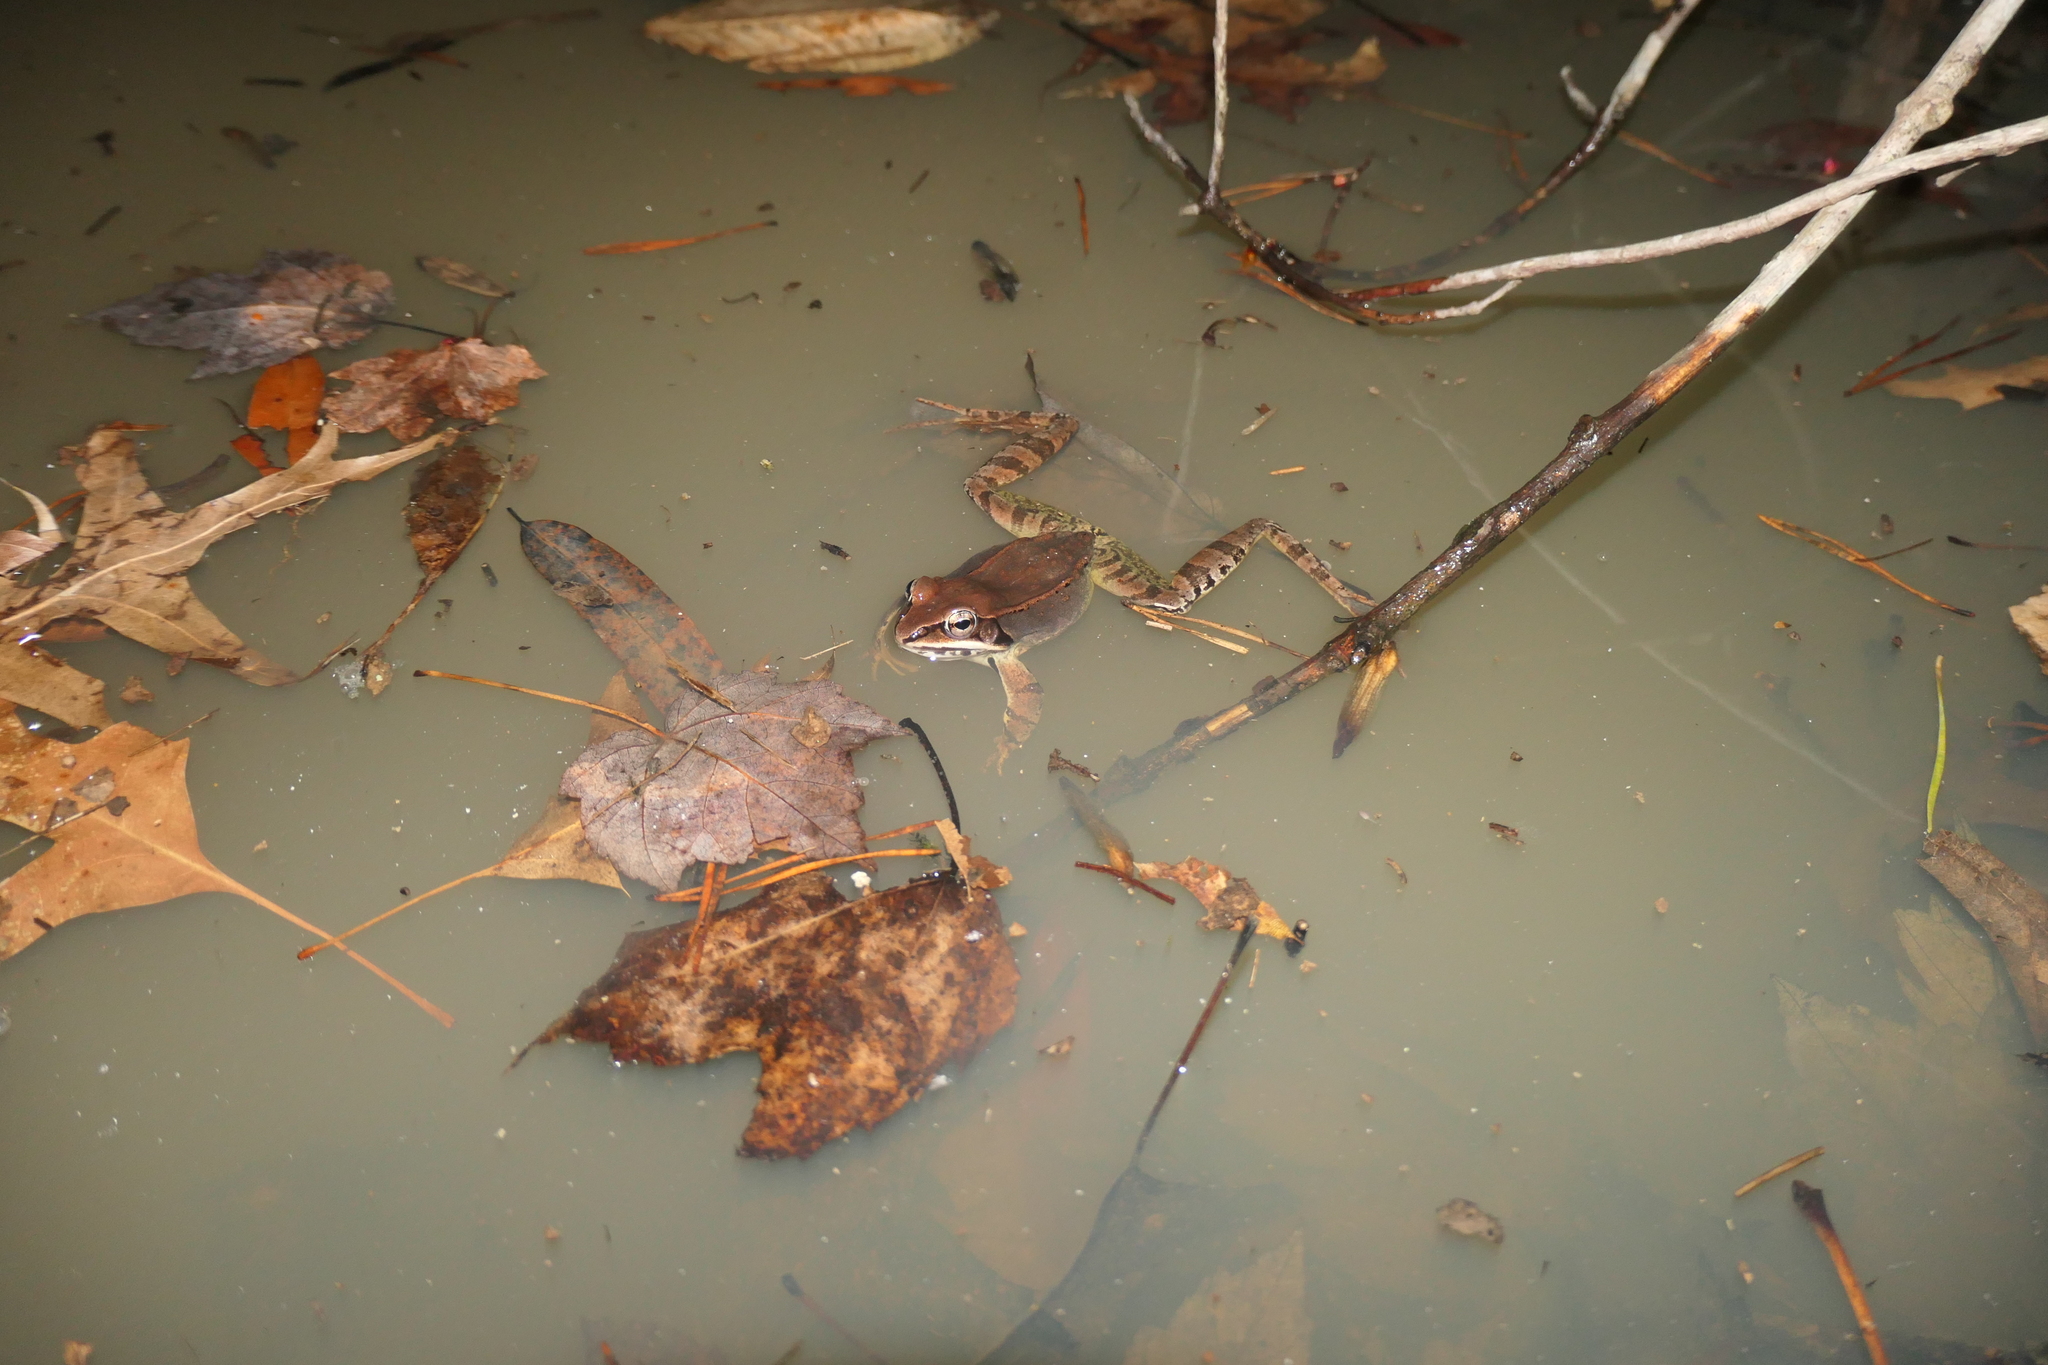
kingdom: Animalia
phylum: Chordata
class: Amphibia
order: Anura
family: Ranidae
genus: Lithobates
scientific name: Lithobates sylvaticus
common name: Wood frog
